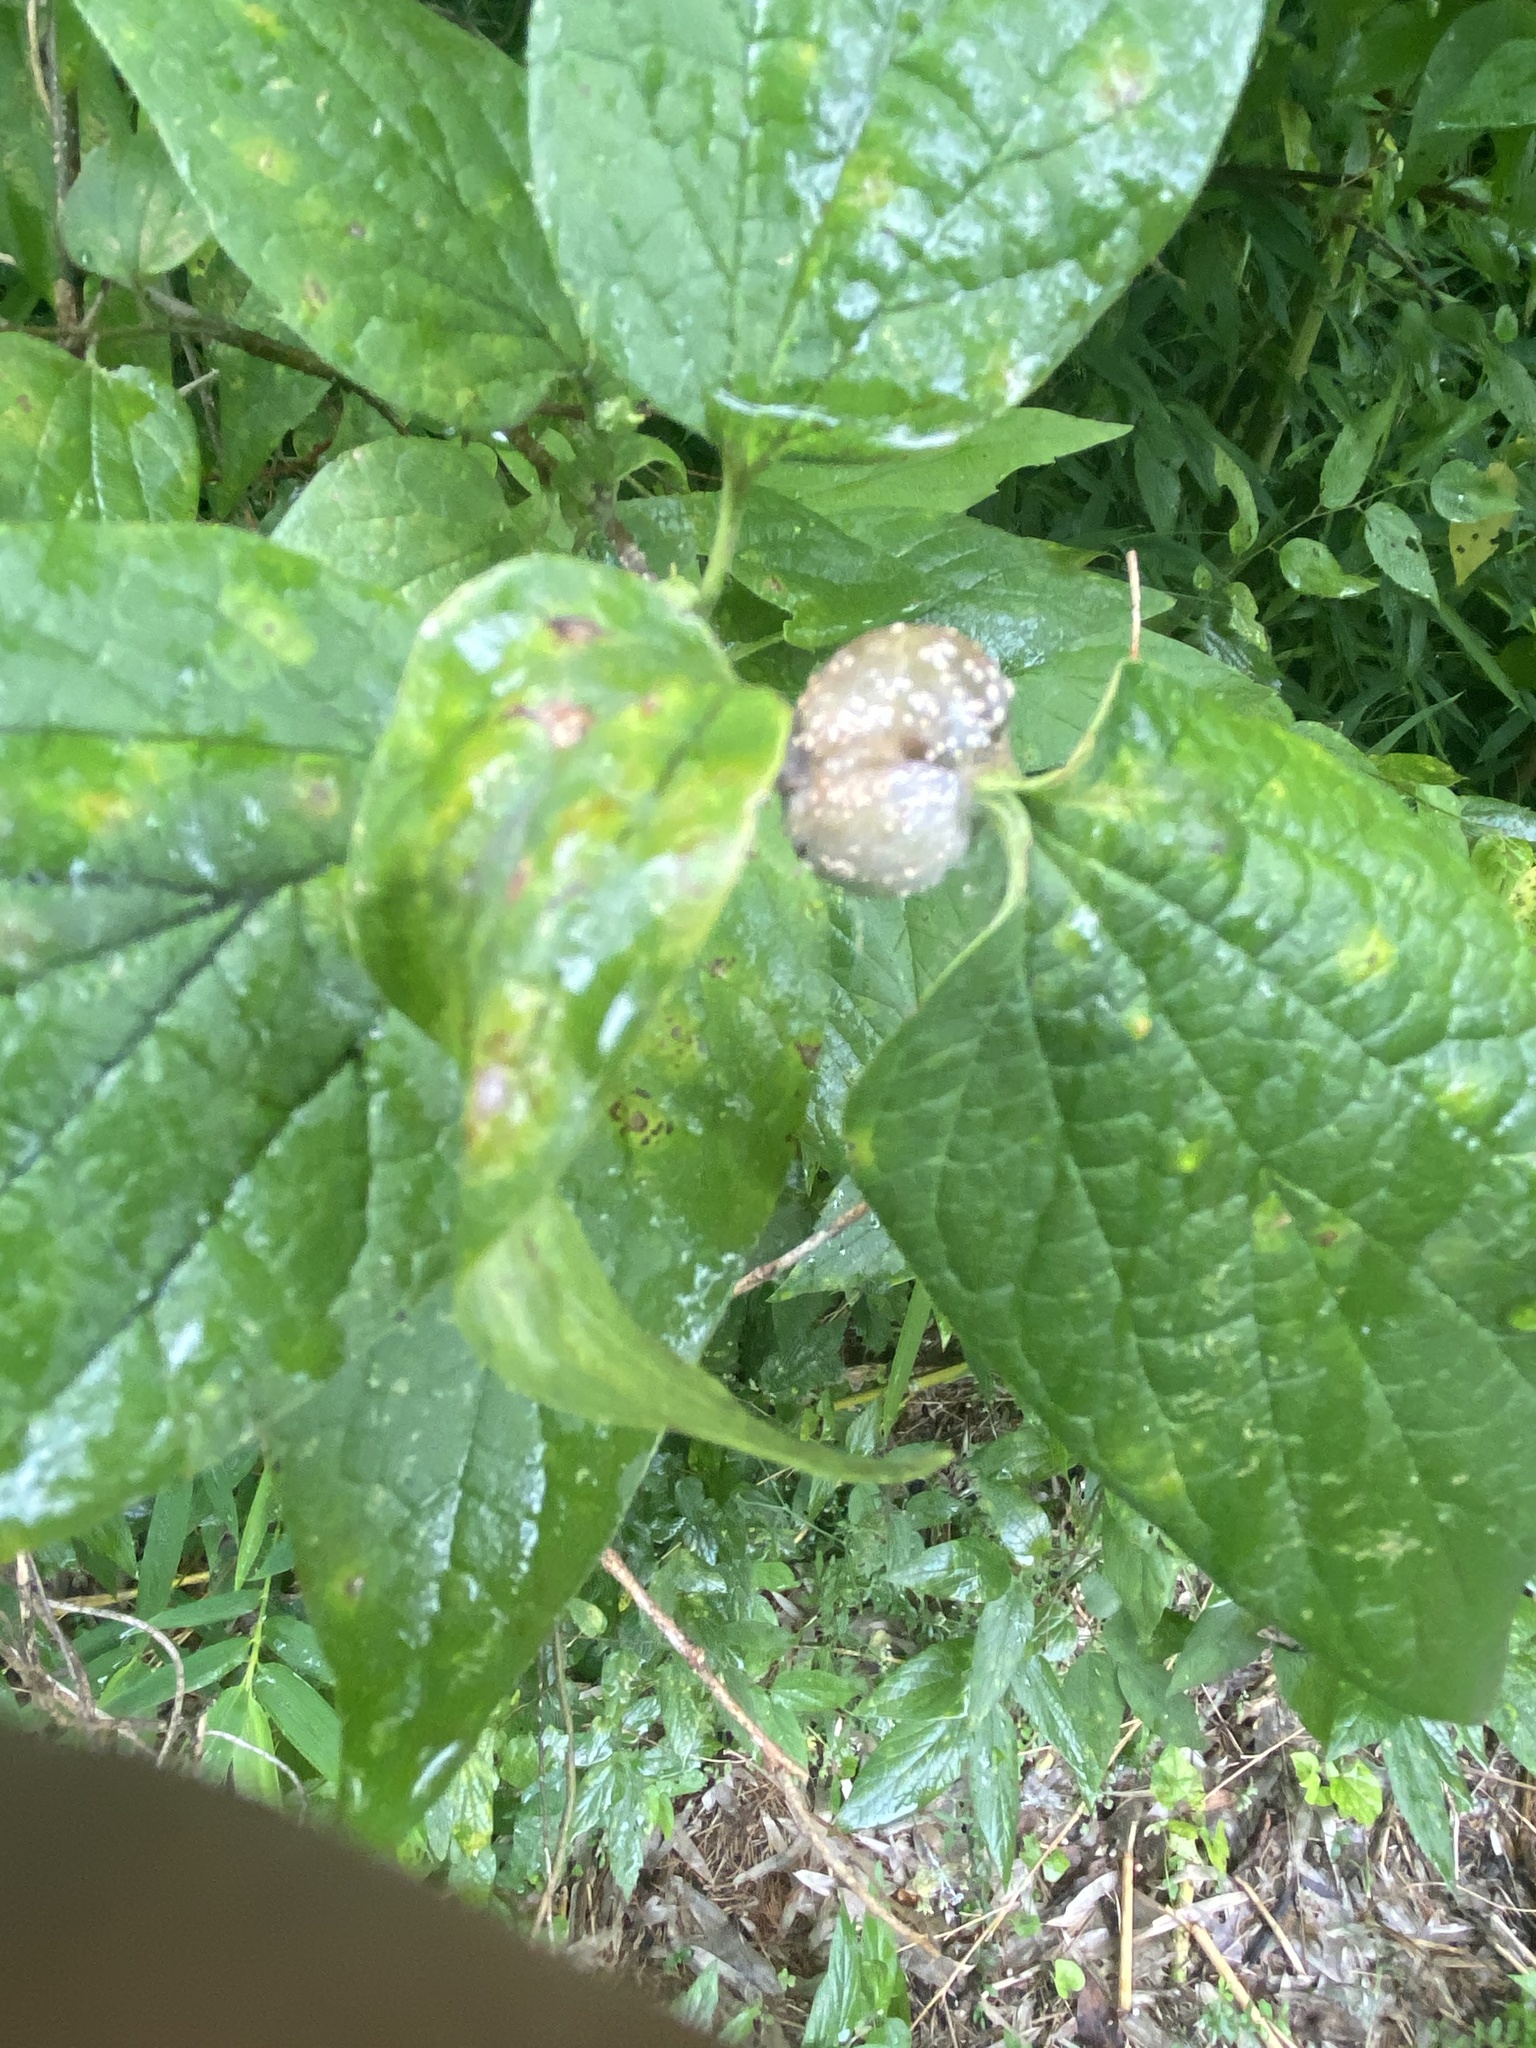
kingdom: Animalia
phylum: Arthropoda
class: Insecta
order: Hemiptera
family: Aphalaridae
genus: Pachypsylla
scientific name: Pachypsylla venusta
